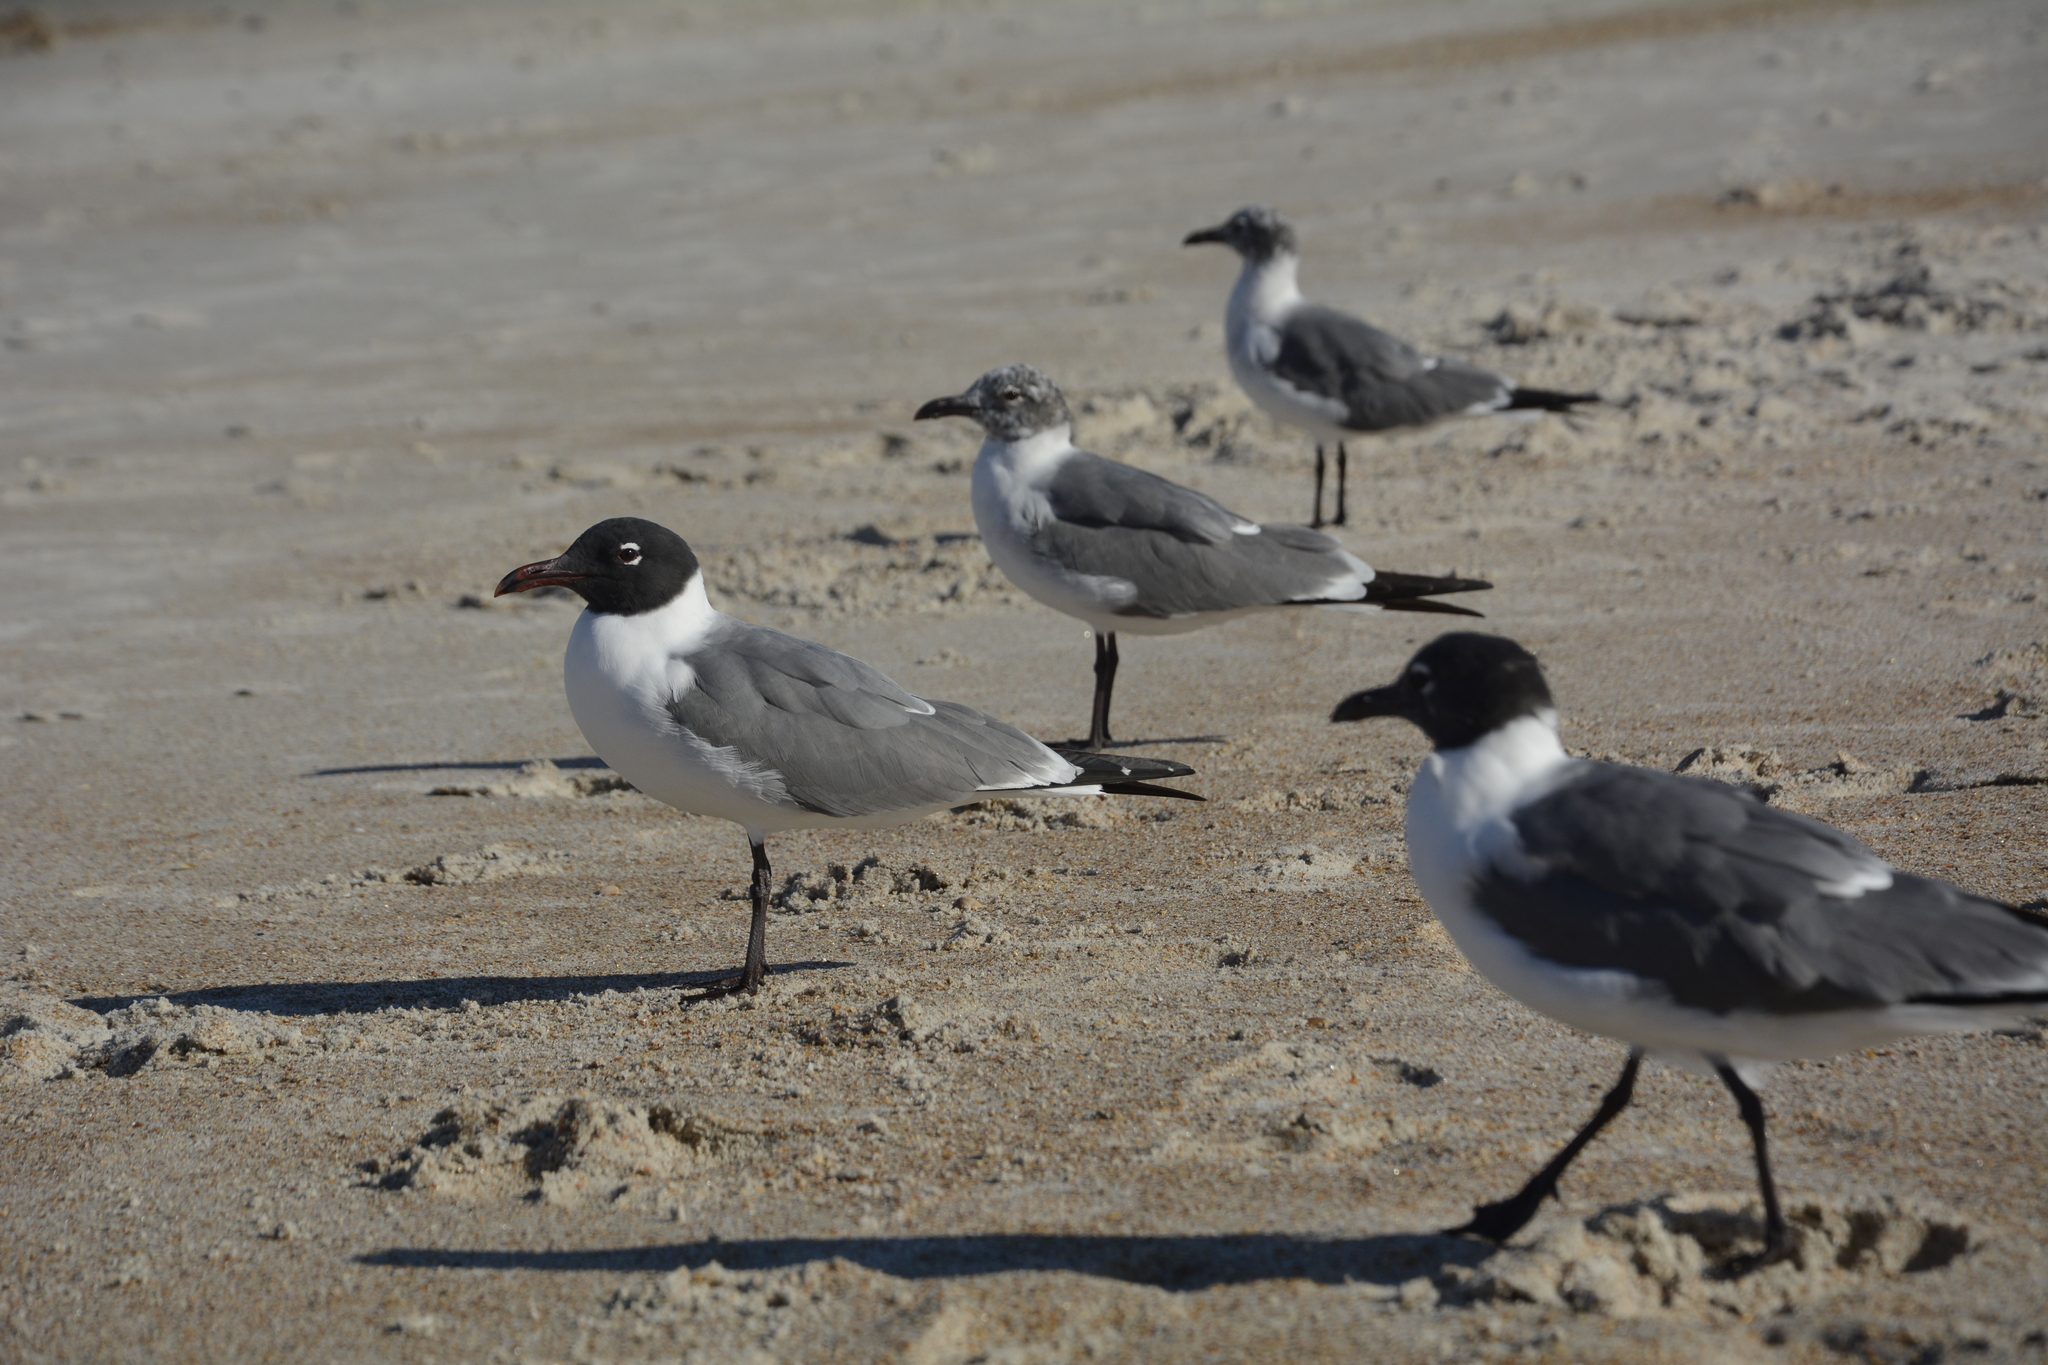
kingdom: Animalia
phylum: Chordata
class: Aves
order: Charadriiformes
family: Laridae
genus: Leucophaeus
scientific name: Leucophaeus atricilla
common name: Laughing gull
